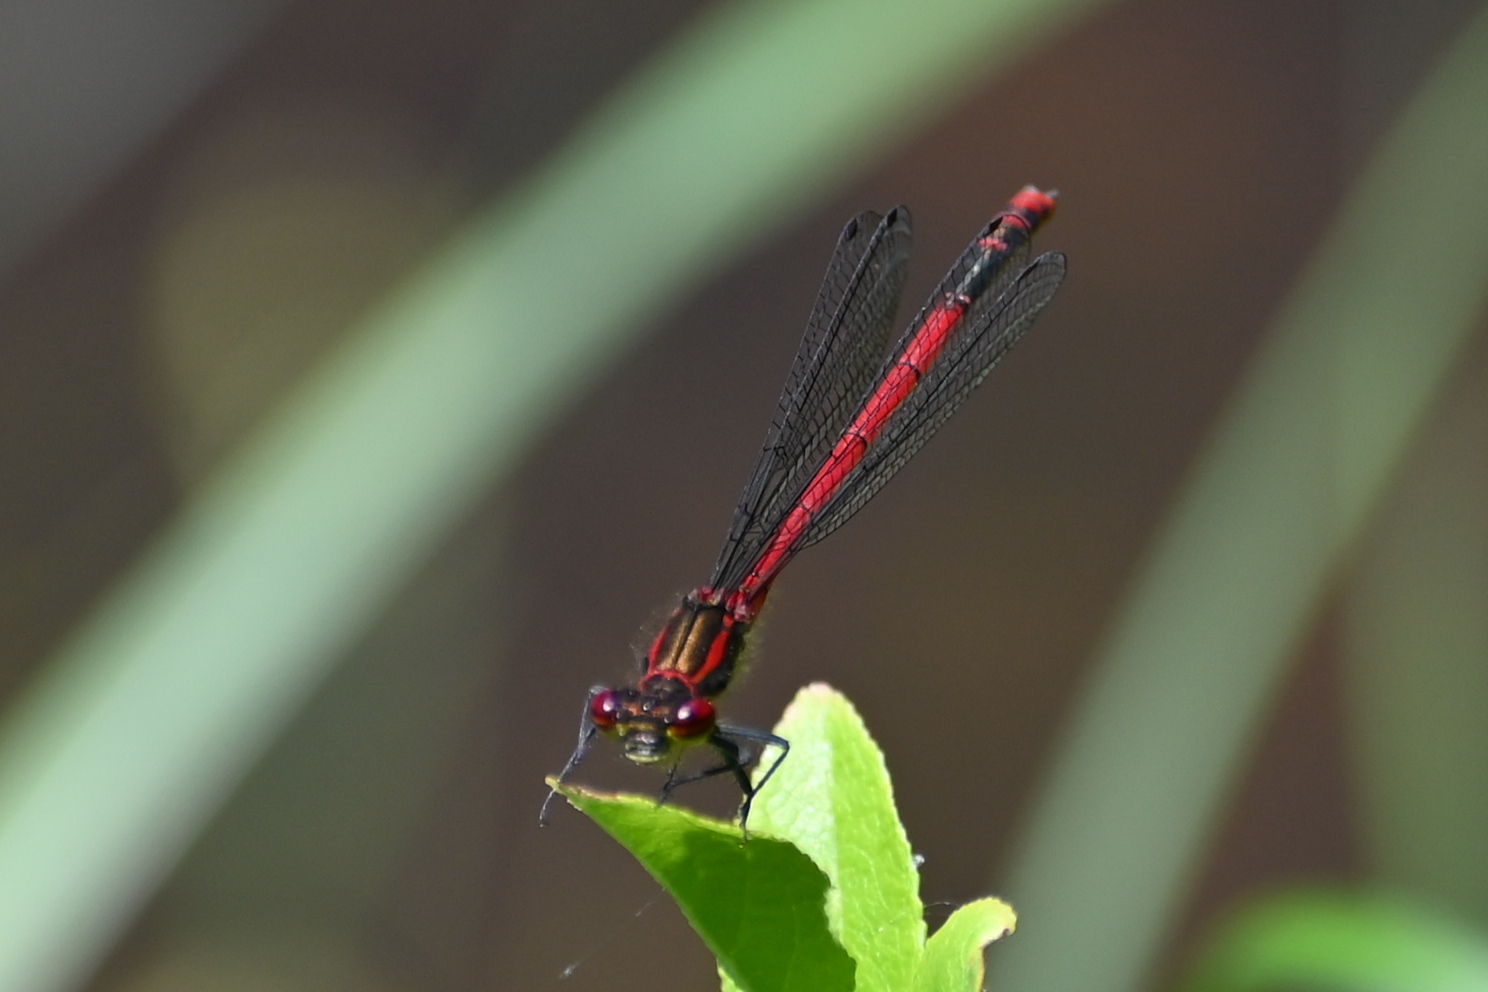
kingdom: Animalia
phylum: Arthropoda
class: Insecta
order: Odonata
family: Coenagrionidae
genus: Pyrrhosoma
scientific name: Pyrrhosoma nymphula
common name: Large red damsel
